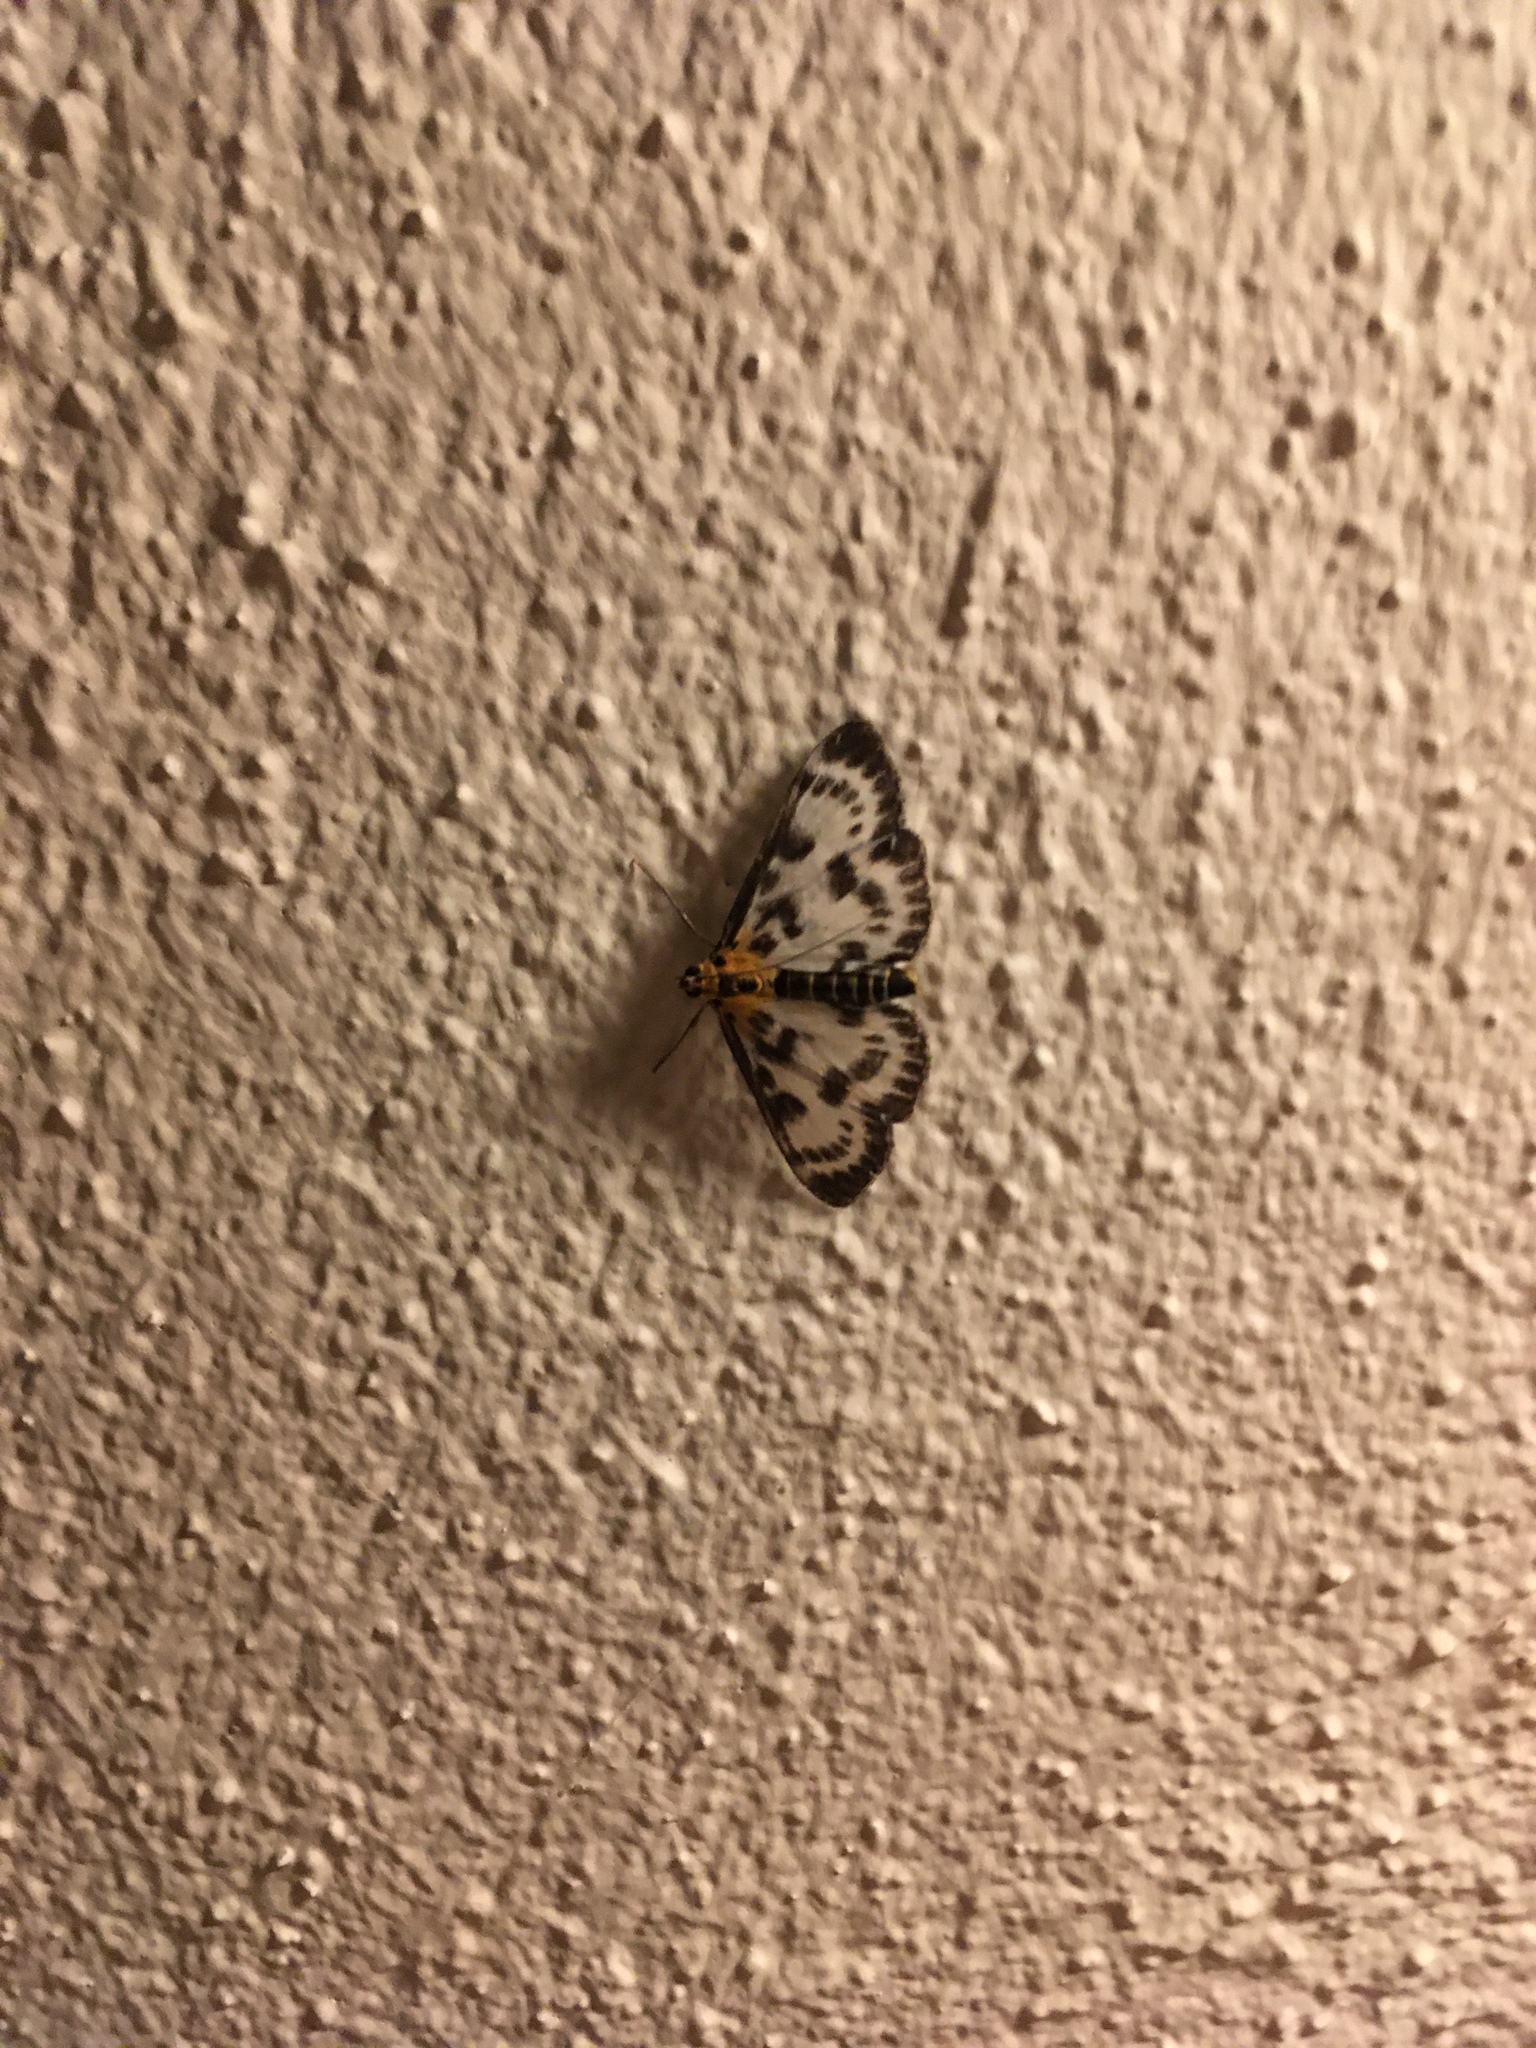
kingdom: Animalia
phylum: Arthropoda
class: Insecta
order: Lepidoptera
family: Crambidae
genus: Anania
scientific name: Anania hortulata
